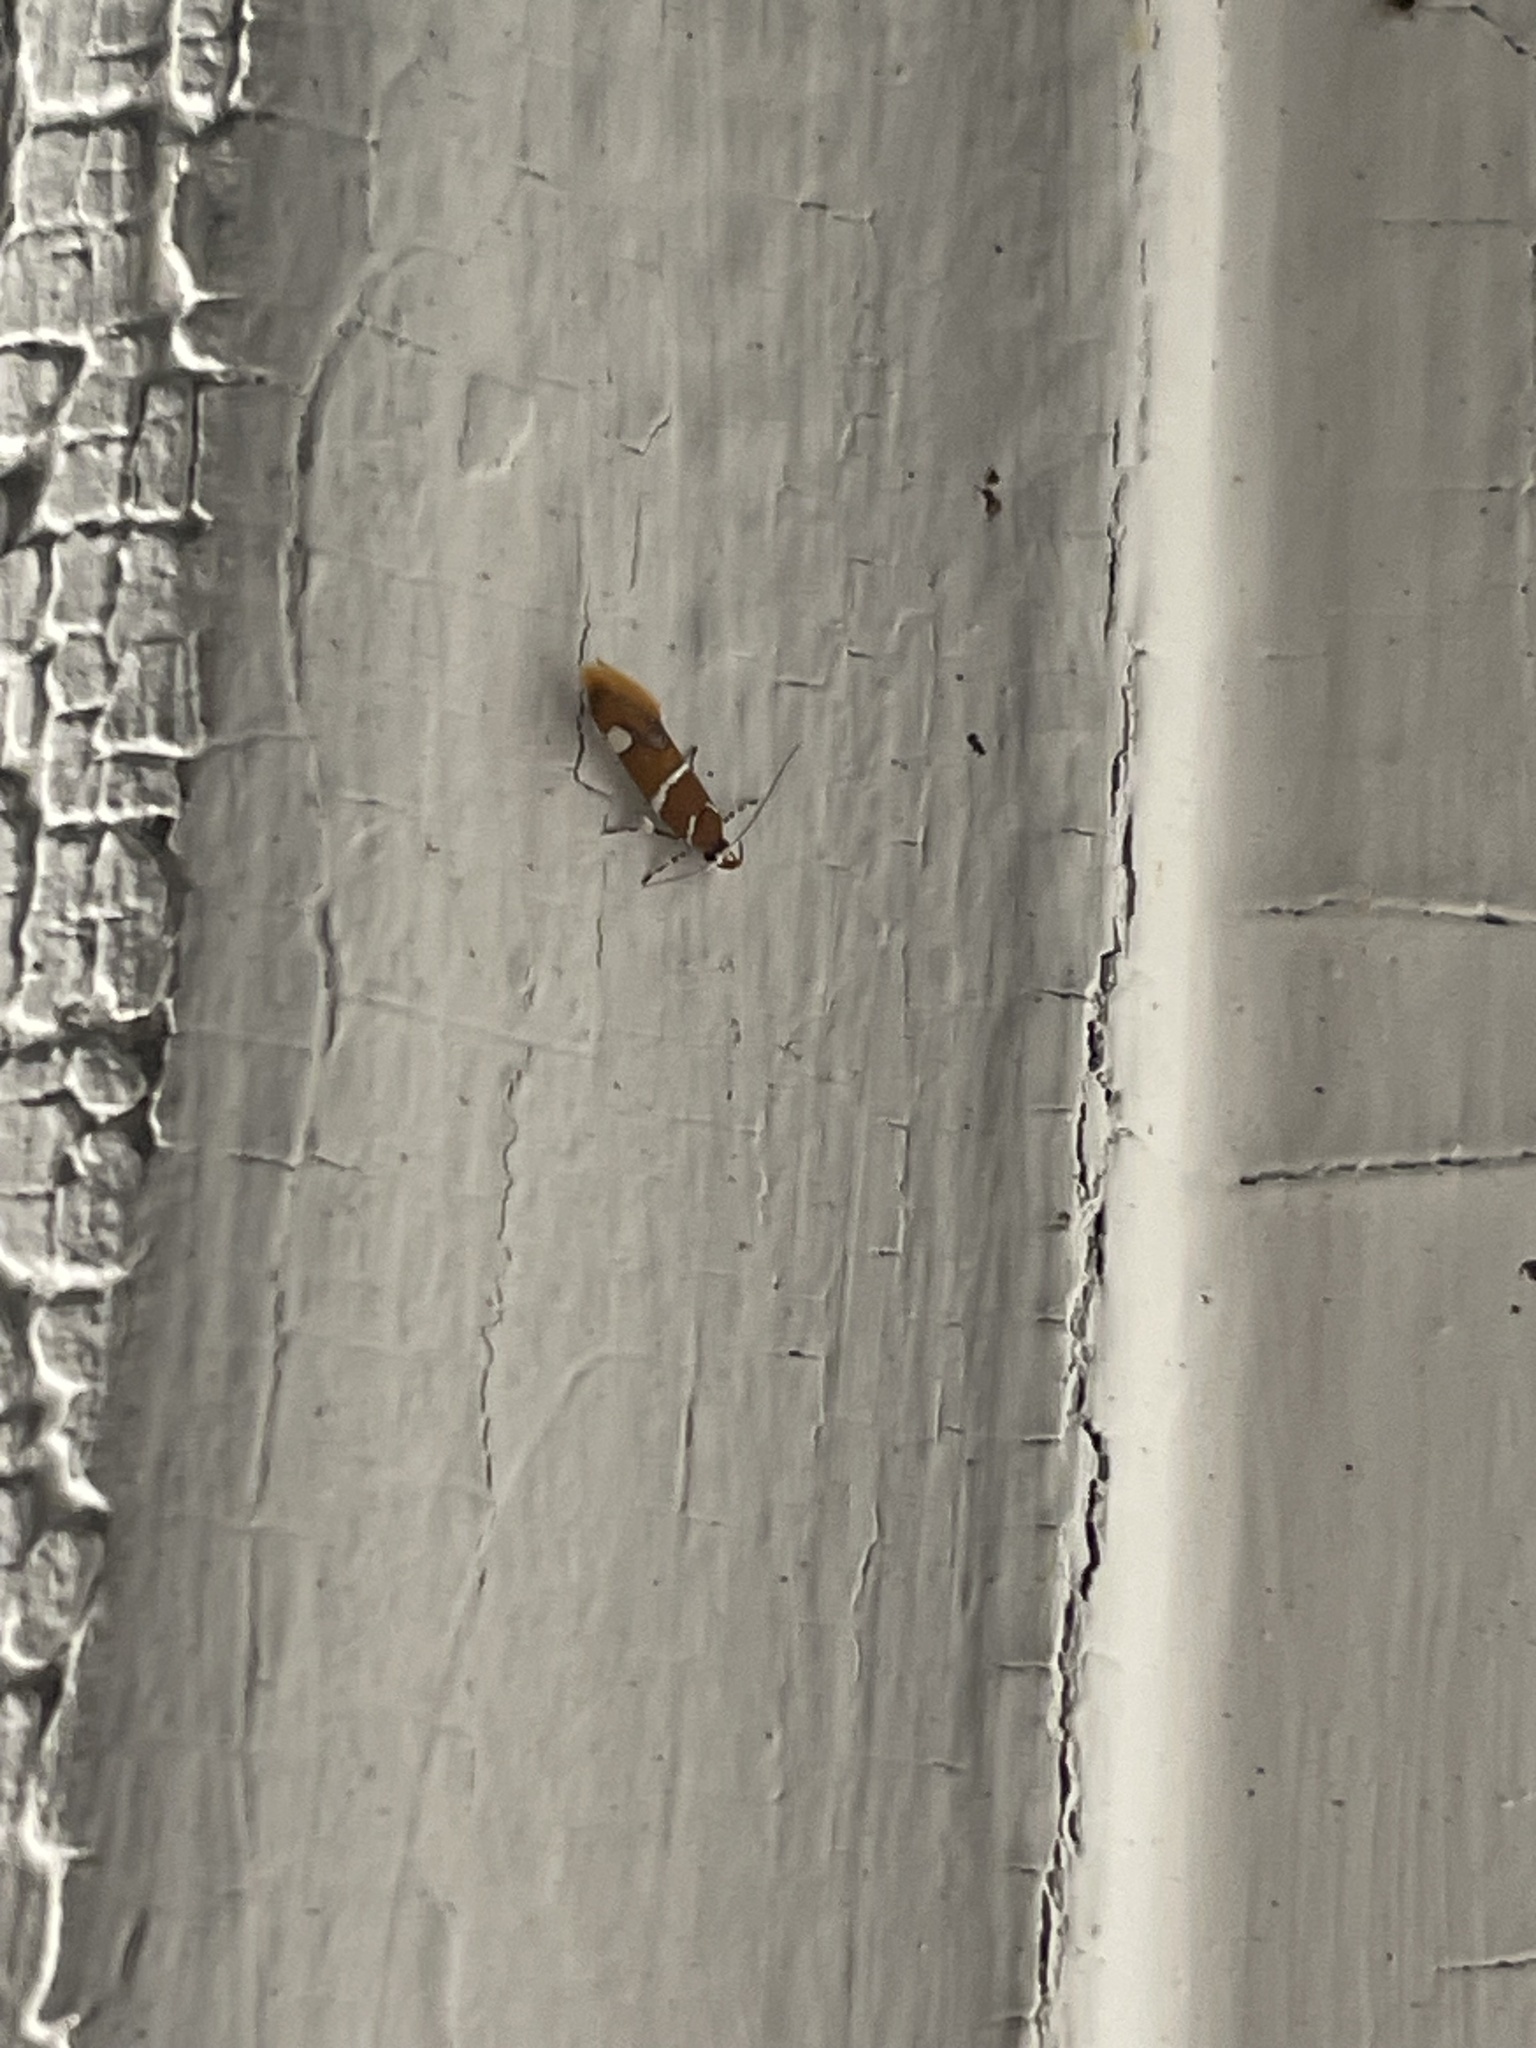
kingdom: Animalia
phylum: Arthropoda
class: Insecta
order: Lepidoptera
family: Oecophoridae
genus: Promalactis
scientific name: Promalactis suzukiella
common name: Moth
